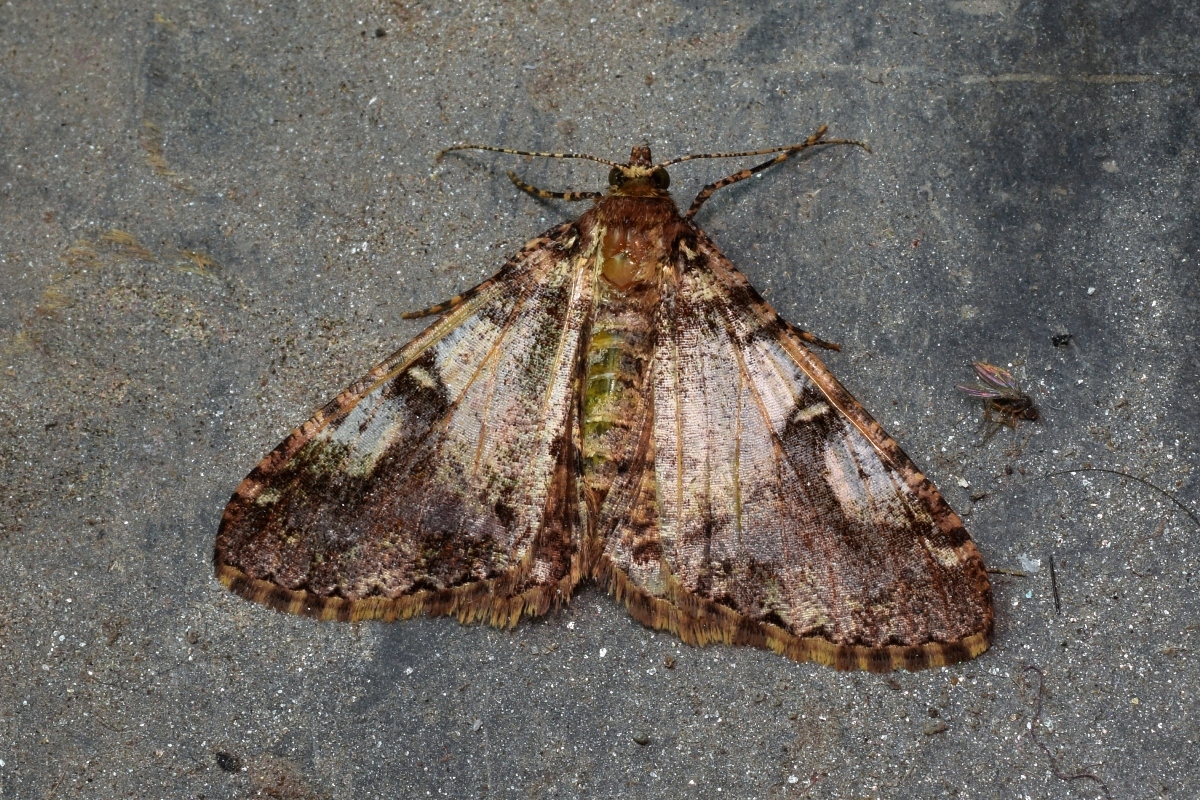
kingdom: Animalia
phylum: Arthropoda
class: Insecta
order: Lepidoptera
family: Geometridae
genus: Gasterocome
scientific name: Gasterocome pannosaria
